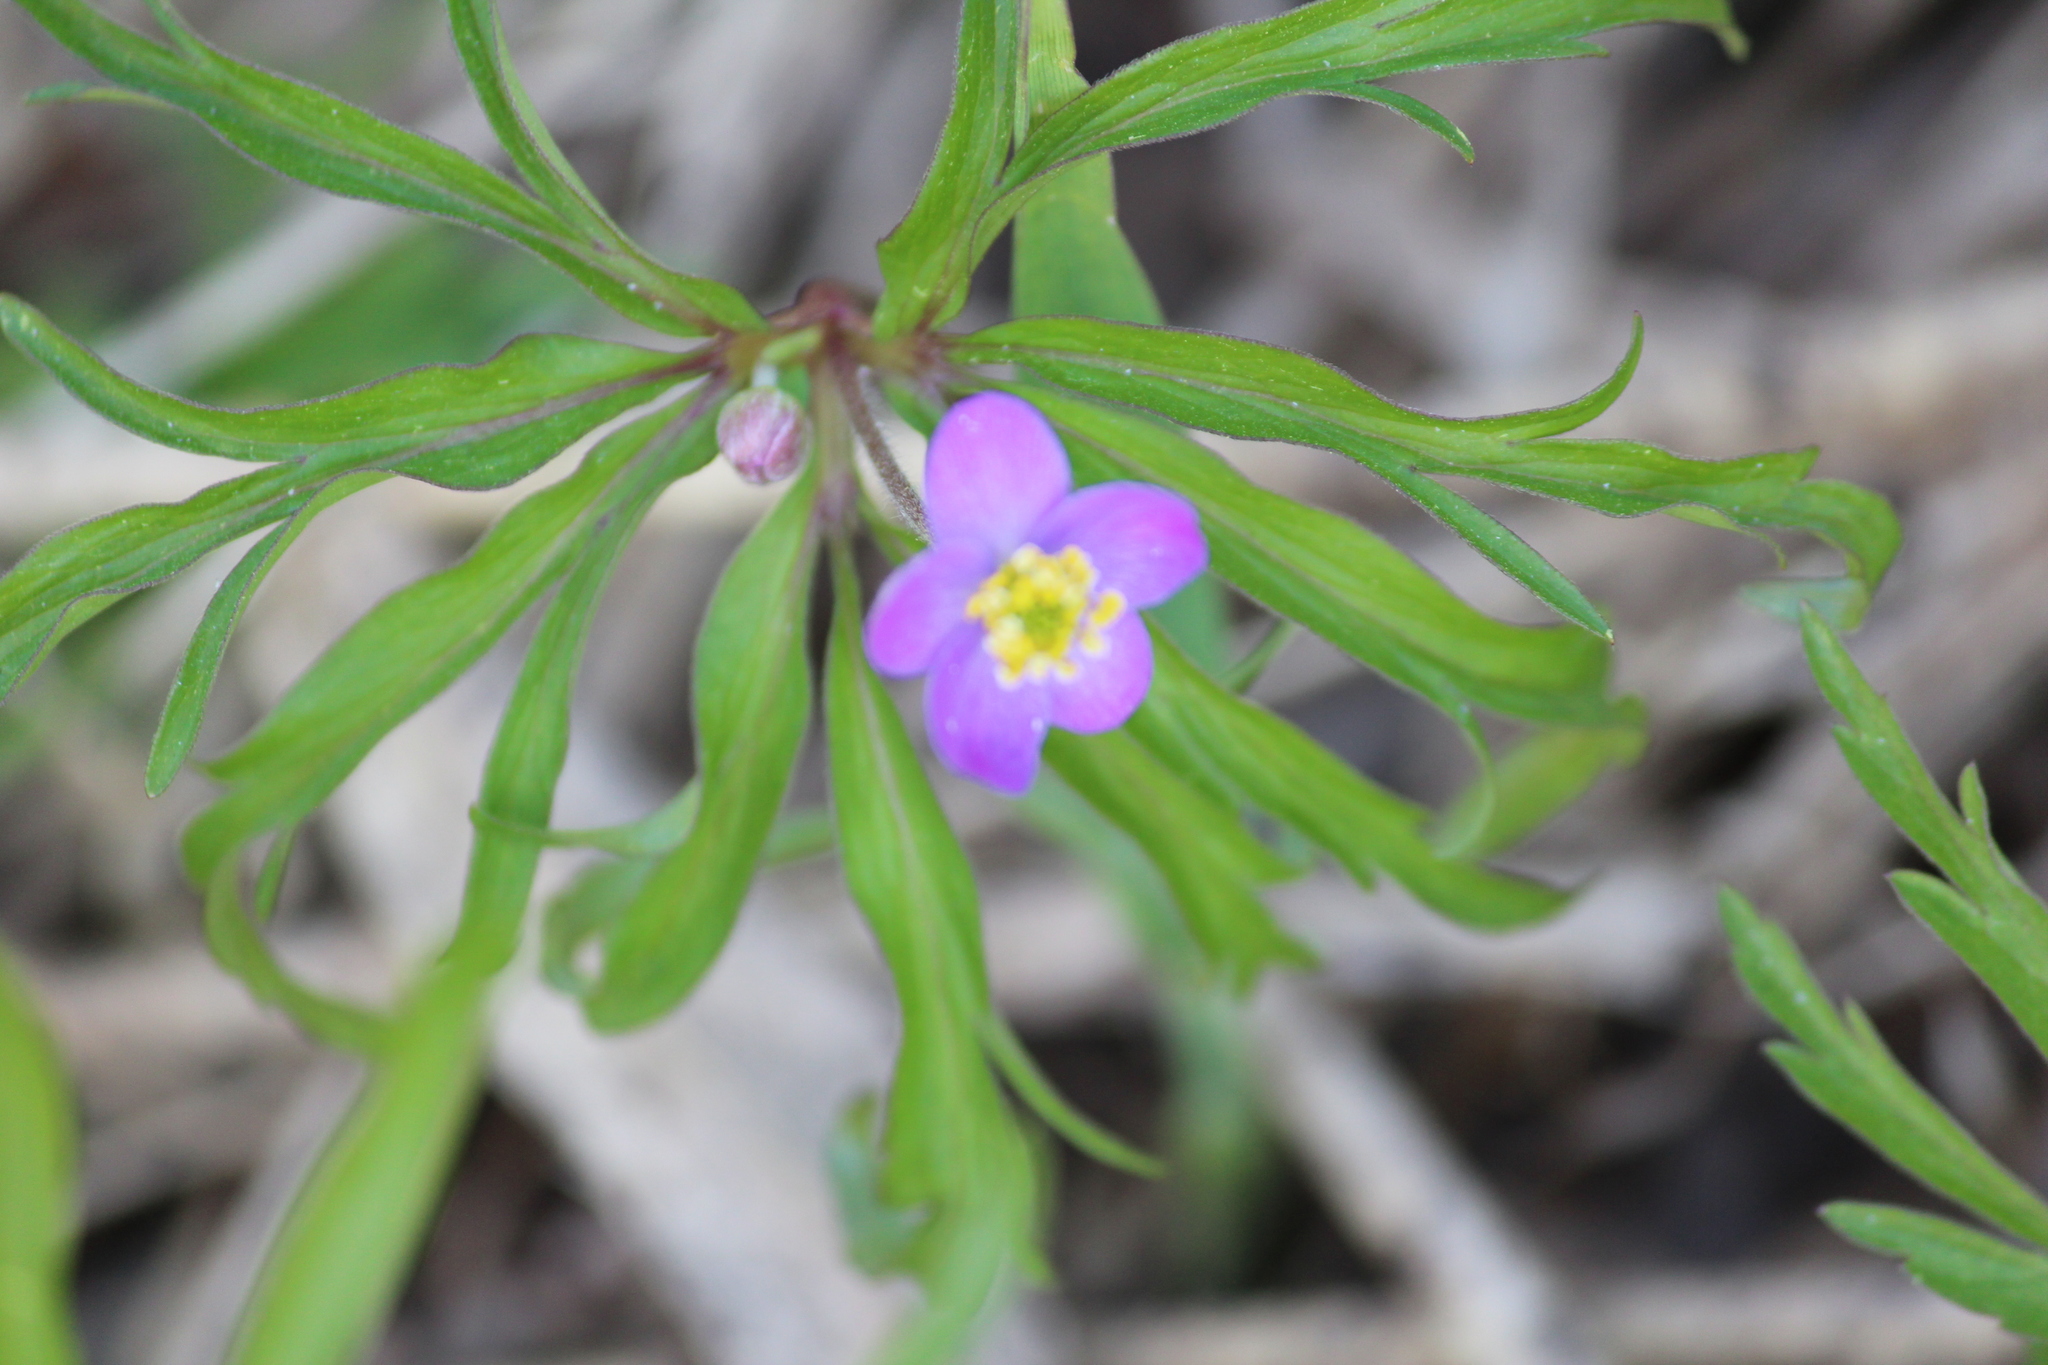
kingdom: Plantae
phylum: Tracheophyta
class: Magnoliopsida
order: Ranunculales
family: Ranunculaceae
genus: Anemone
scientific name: Anemone caerulea
